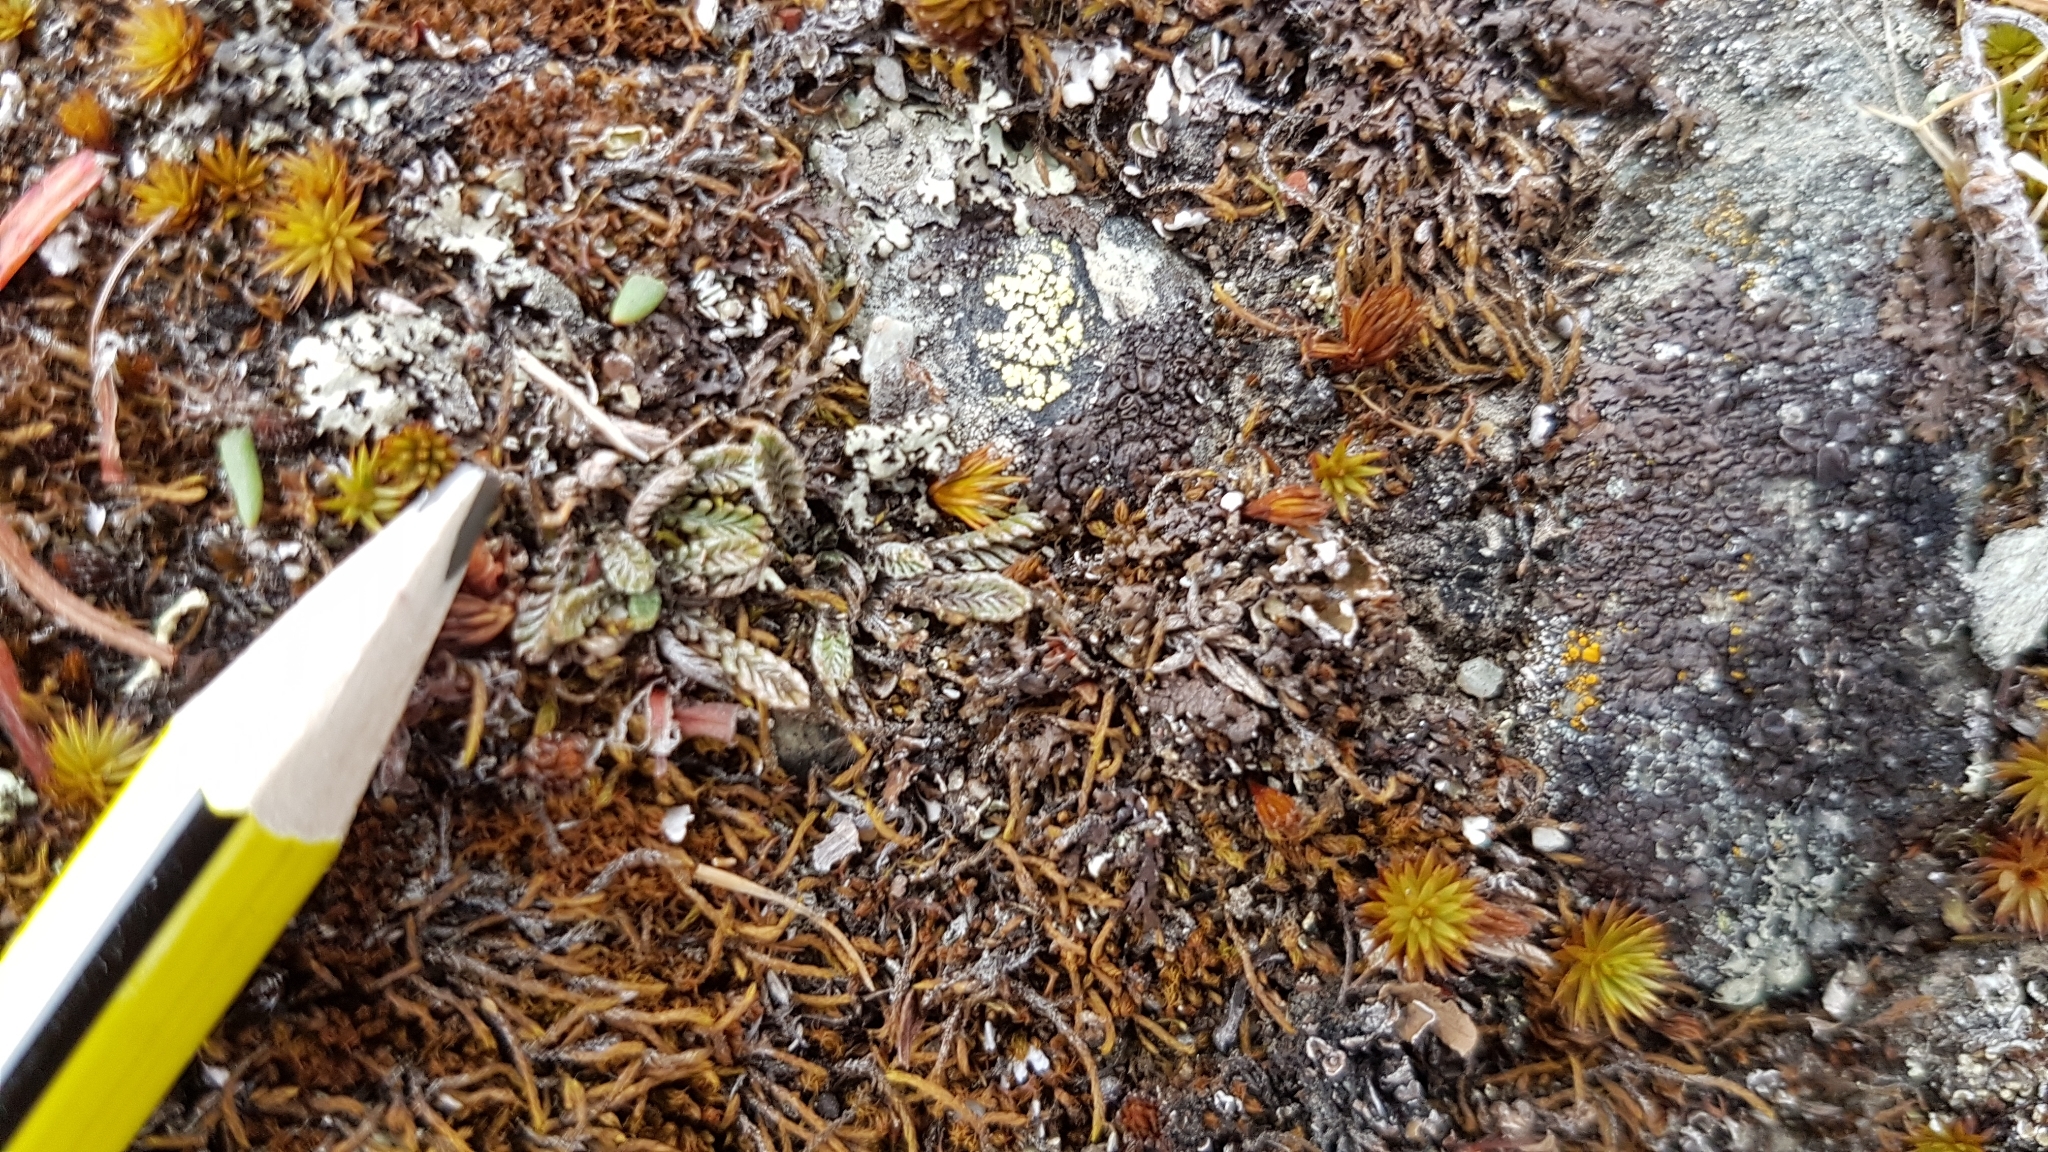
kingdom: Plantae
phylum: Tracheophyta
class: Magnoliopsida
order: Asterales
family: Asteraceae
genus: Leptinella
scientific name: Leptinella conjuncta
